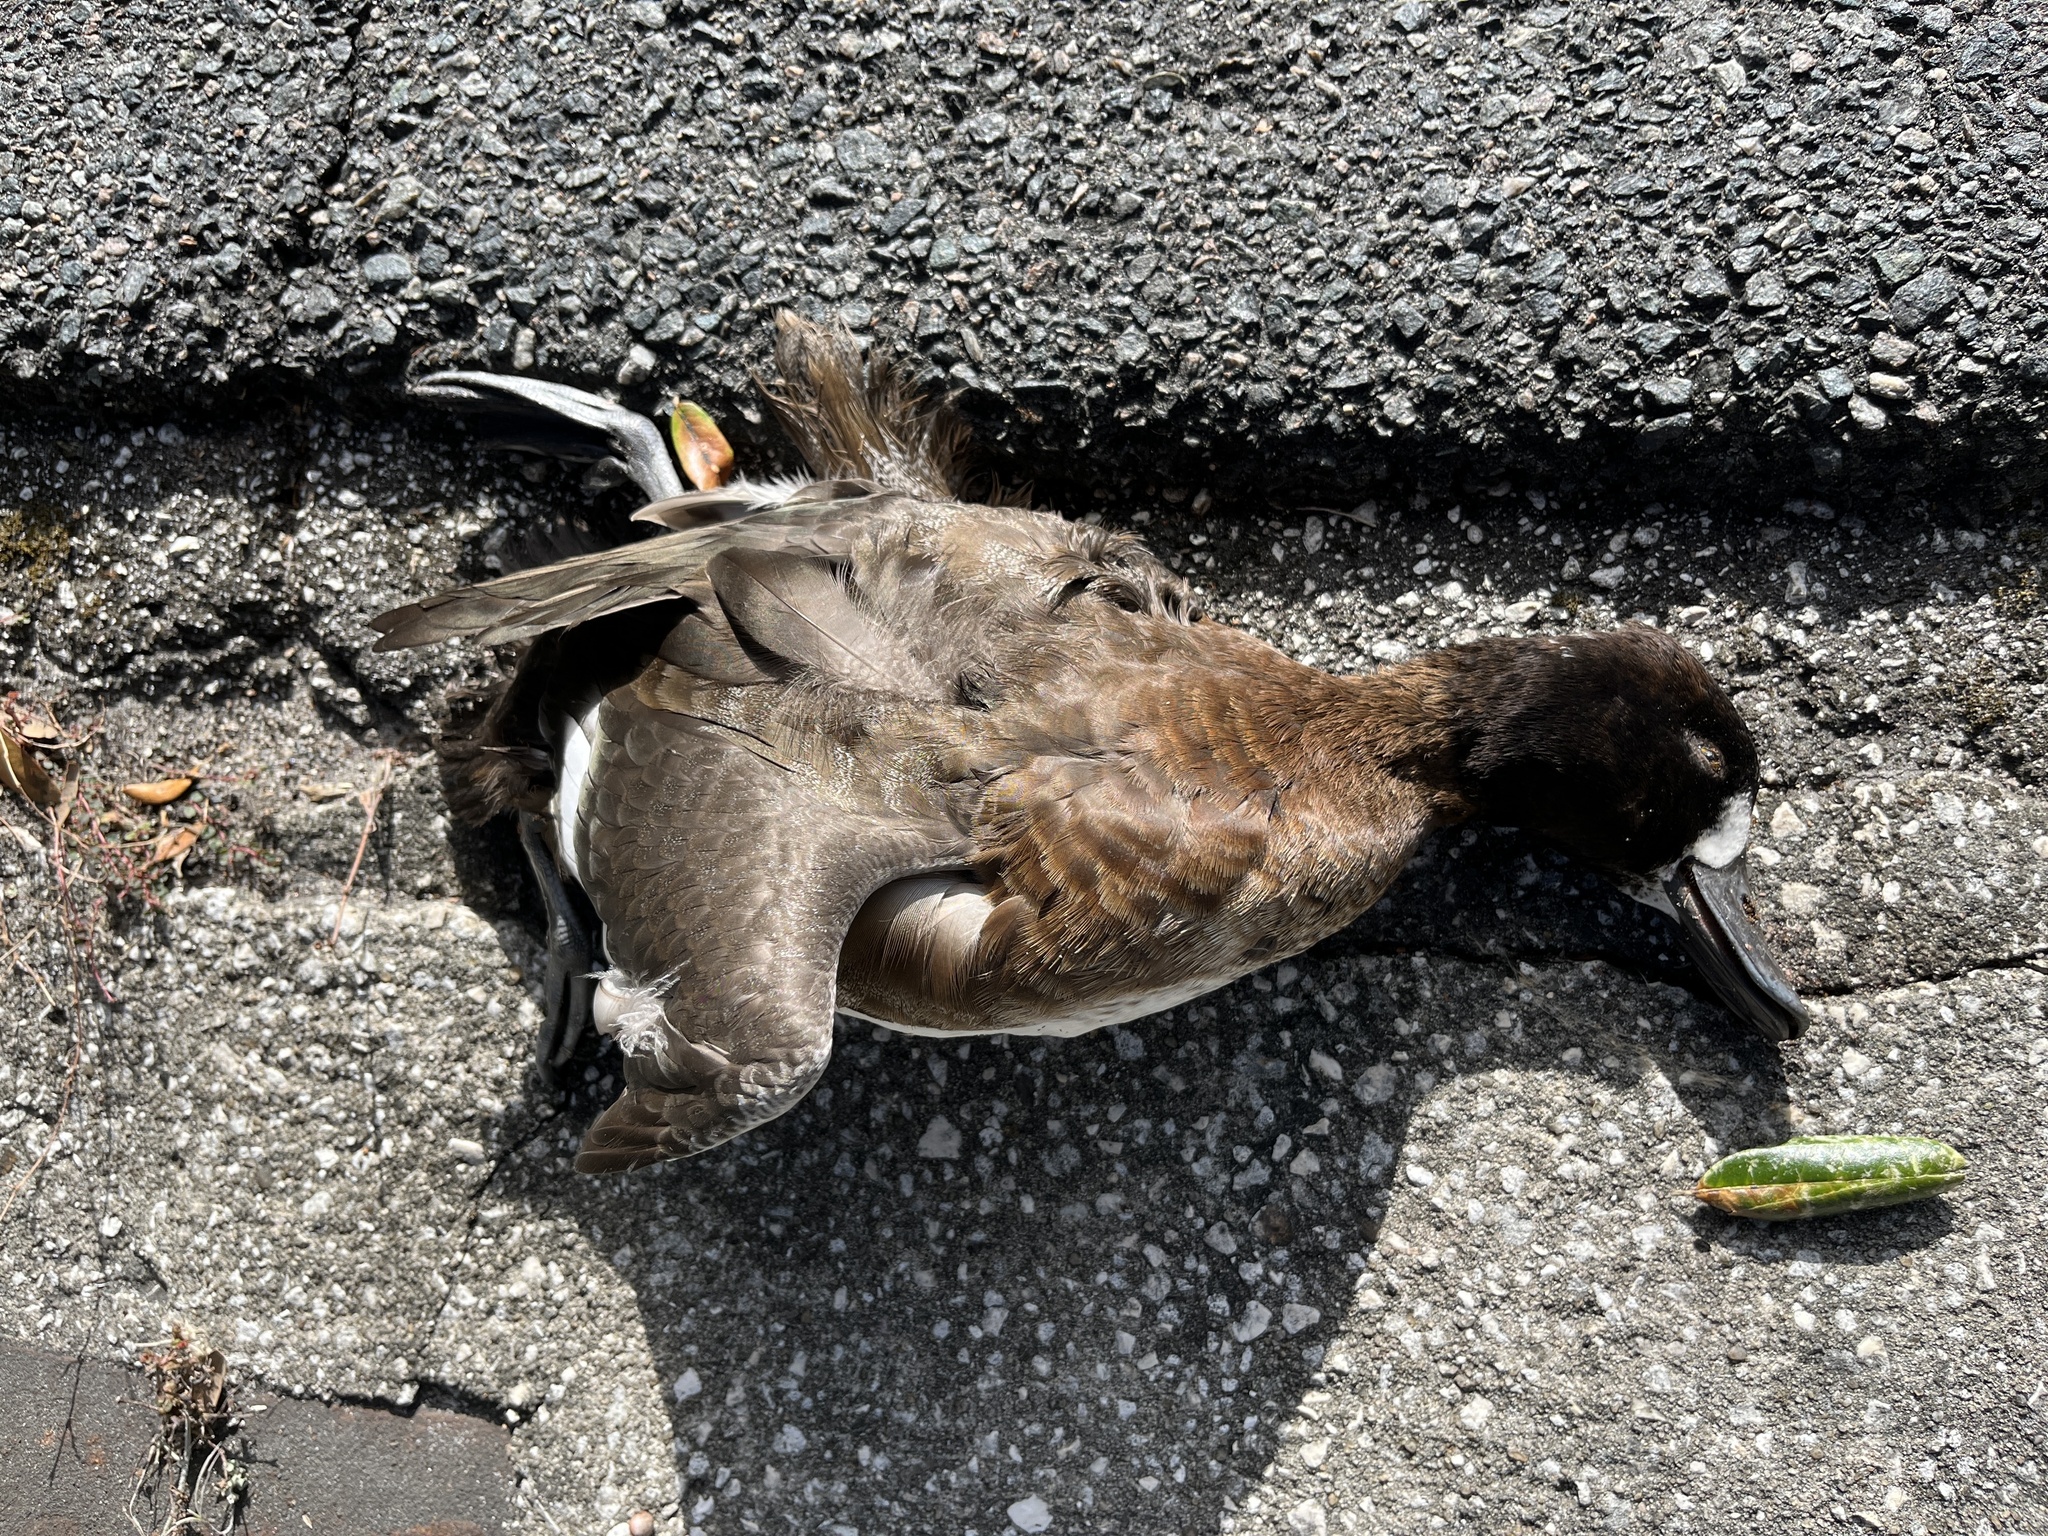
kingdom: Animalia
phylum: Chordata
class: Aves
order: Anseriformes
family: Anatidae
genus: Aythya
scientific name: Aythya affinis
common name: Lesser scaup
